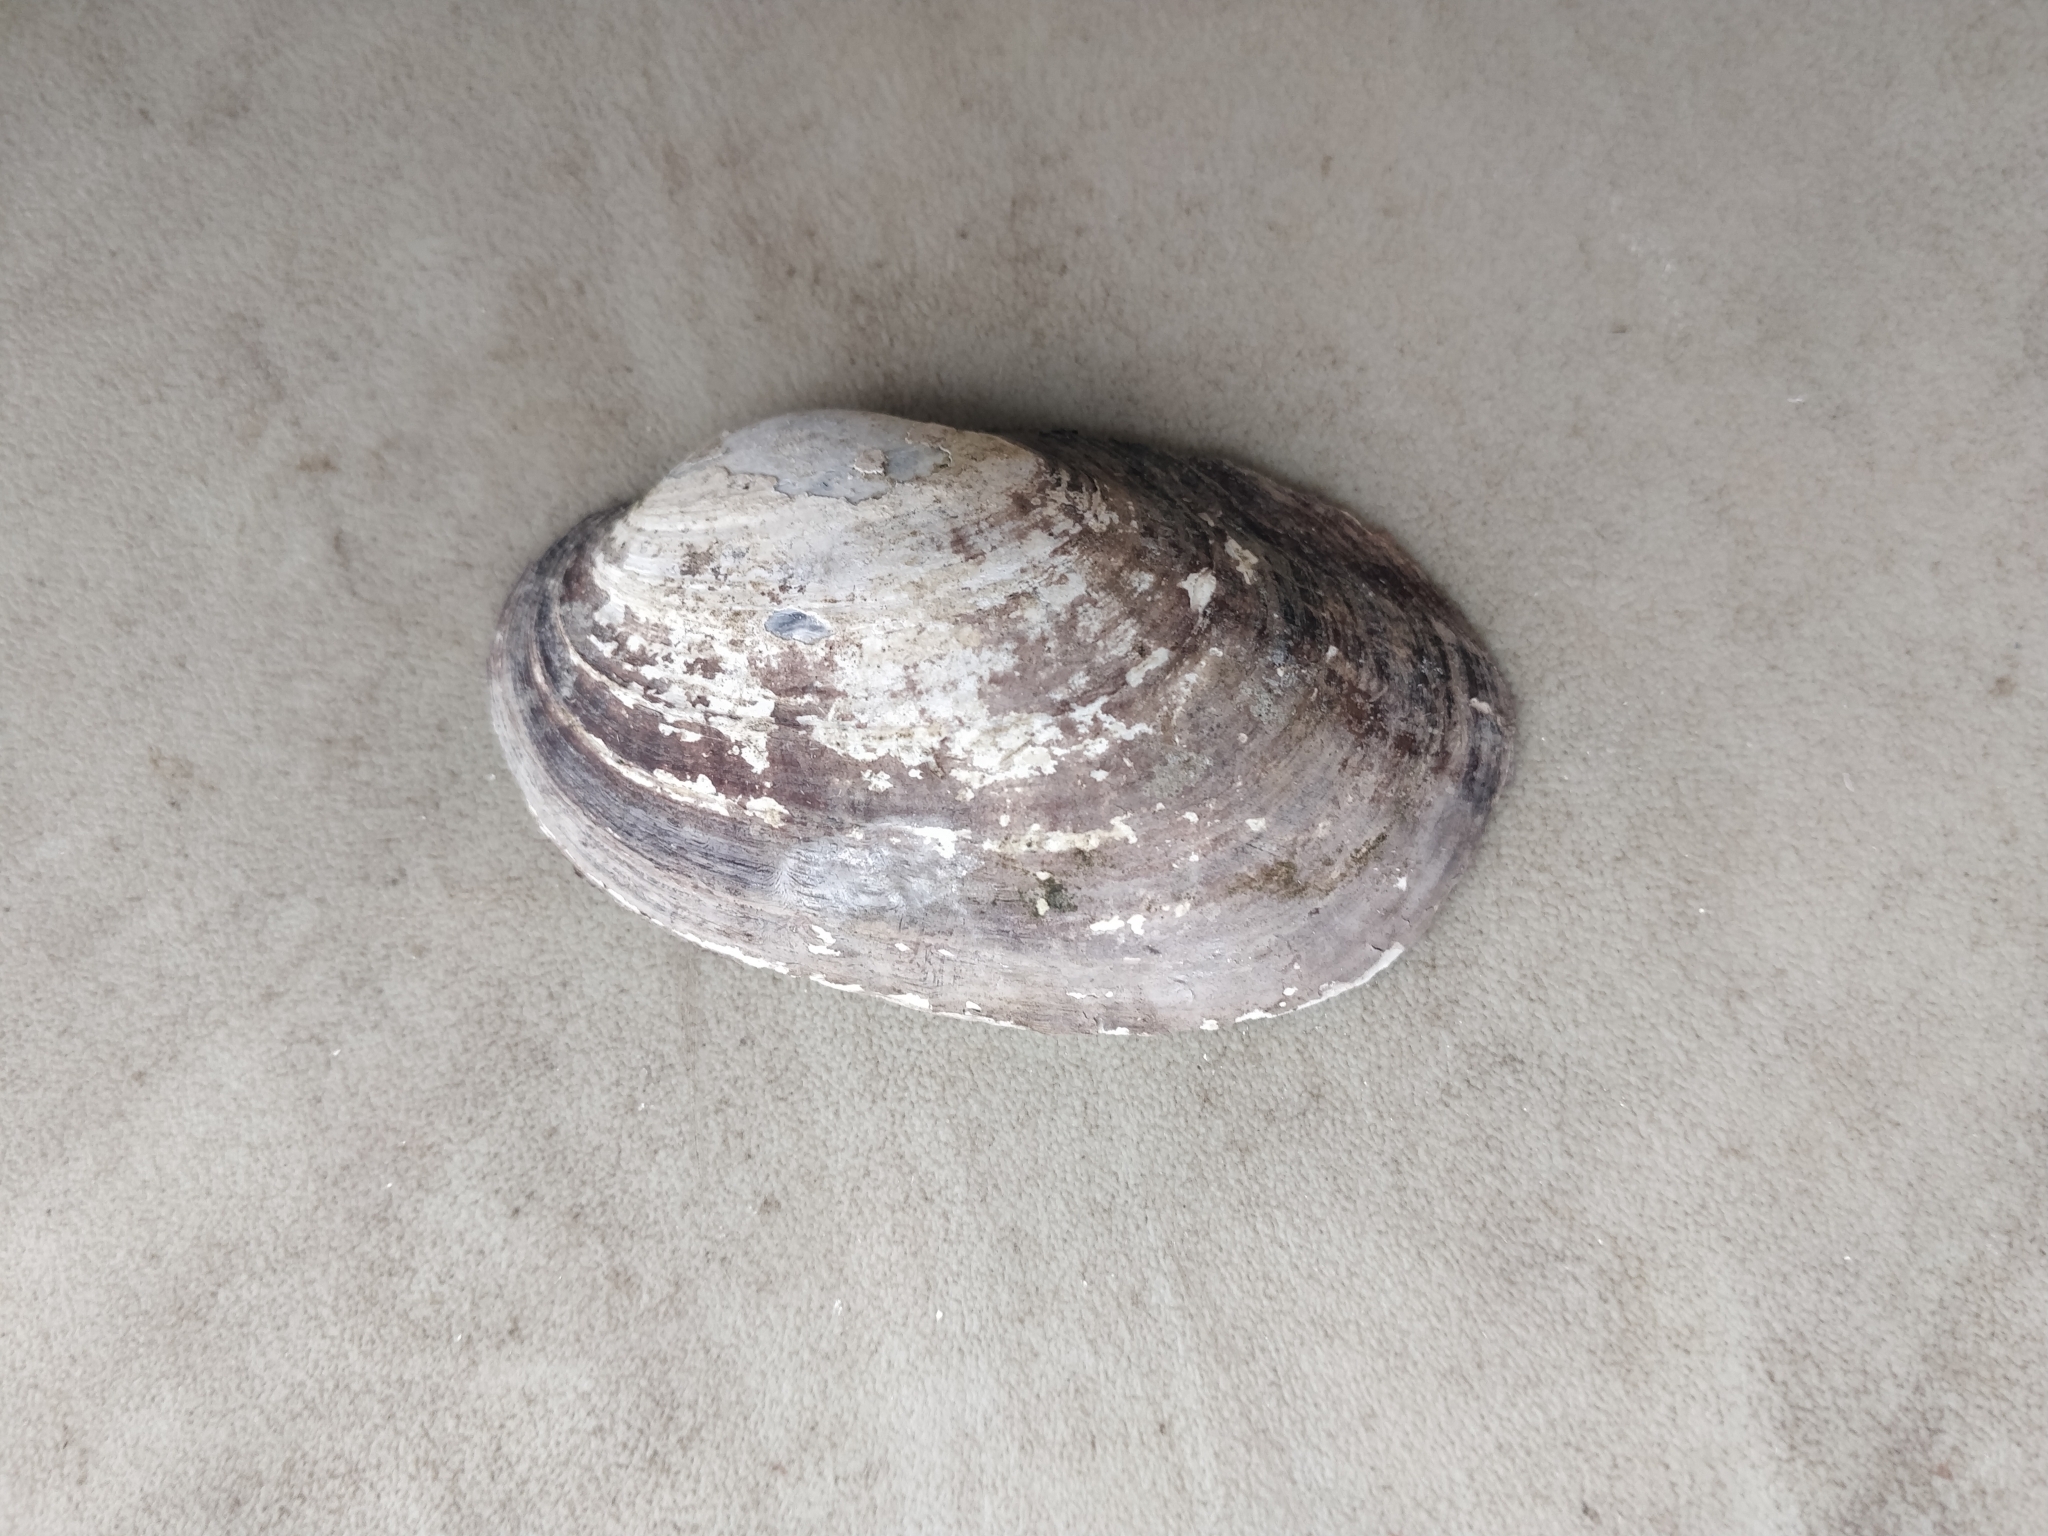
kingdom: Animalia
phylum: Mollusca
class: Bivalvia
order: Unionida
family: Unionidae
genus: Lampsilis
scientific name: Lampsilis siliquoidea
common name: Fatmucket
